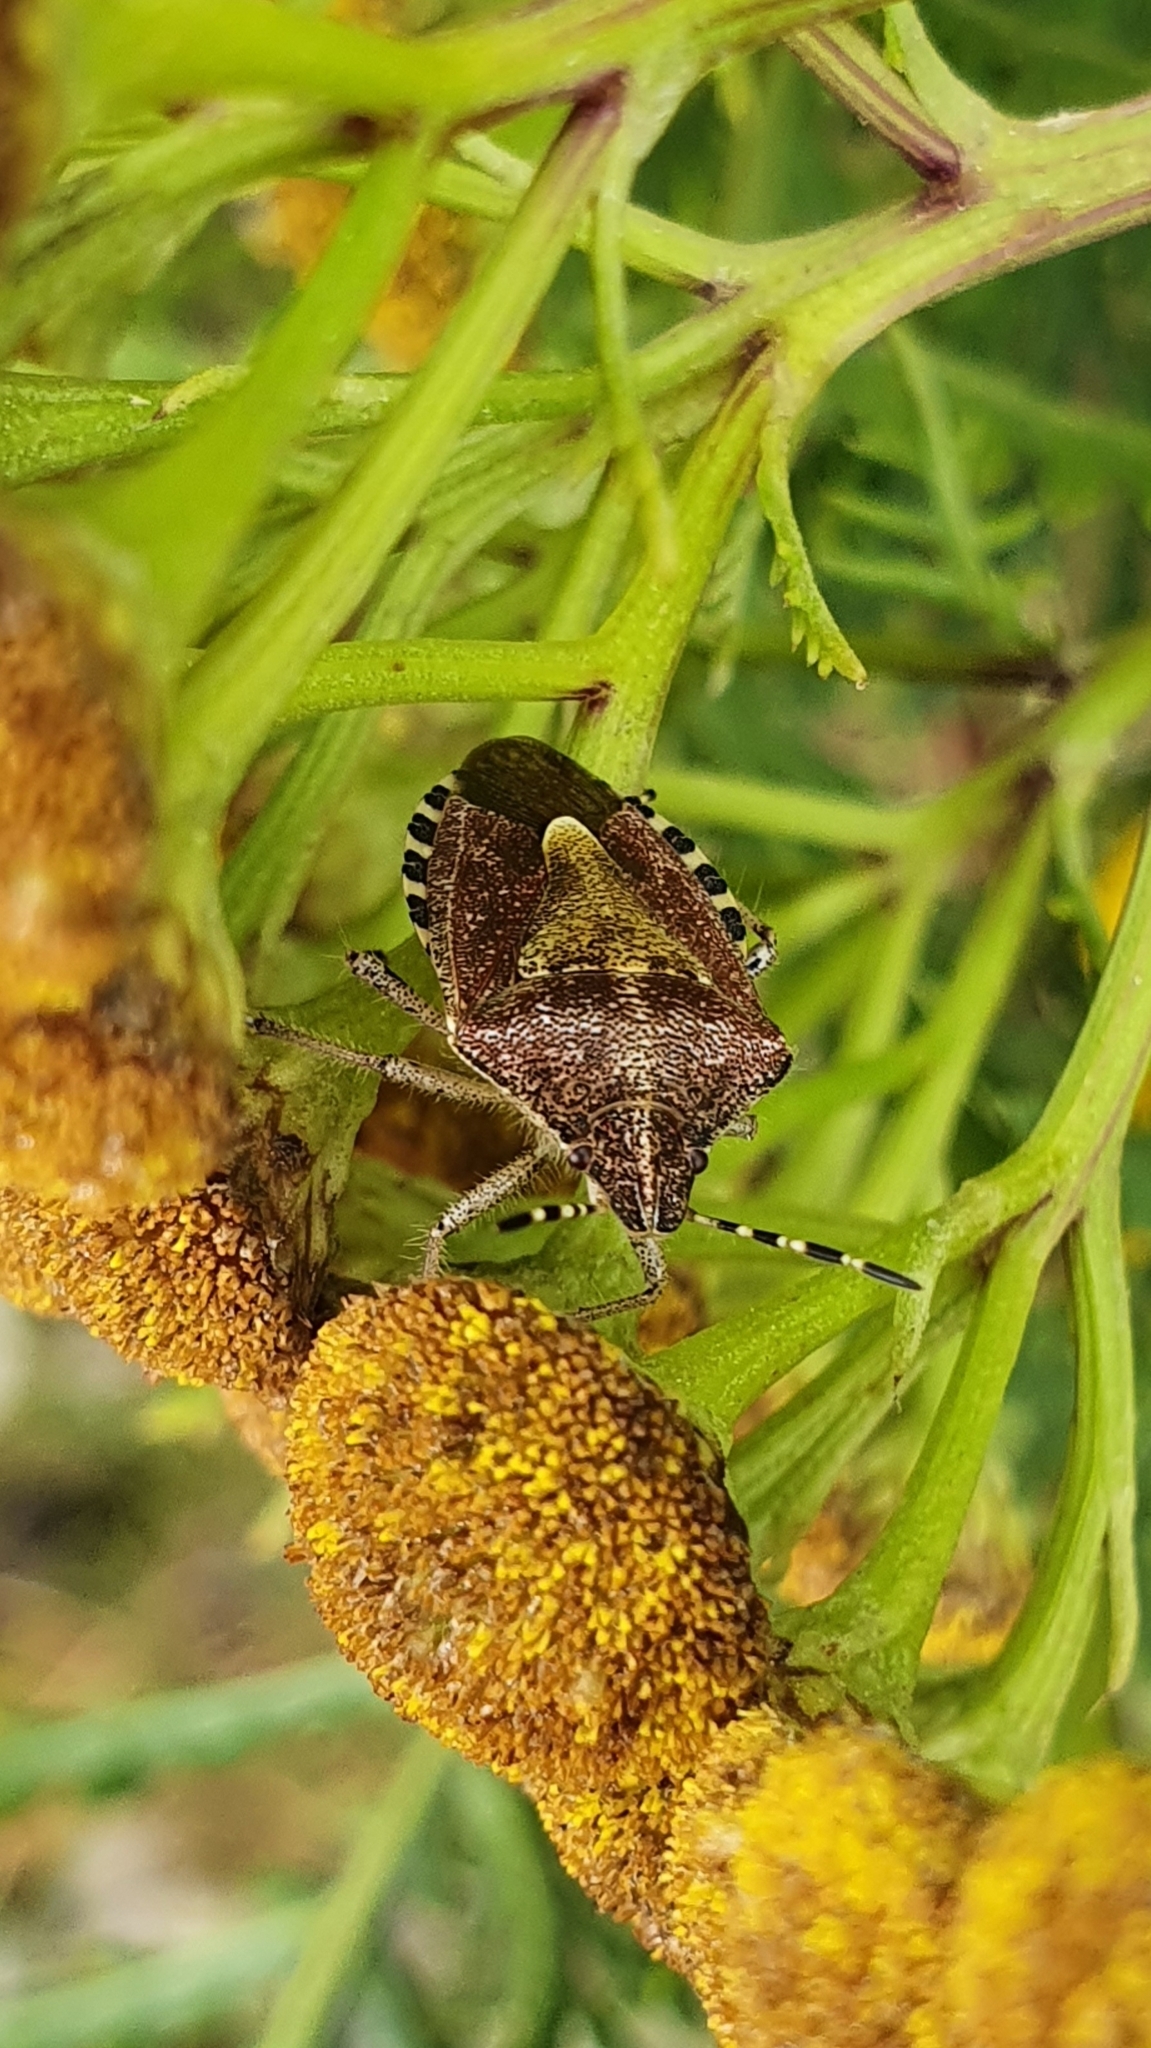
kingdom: Animalia
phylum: Arthropoda
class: Insecta
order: Hemiptera
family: Pentatomidae
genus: Dolycoris
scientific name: Dolycoris baccarum
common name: Sloe bug
